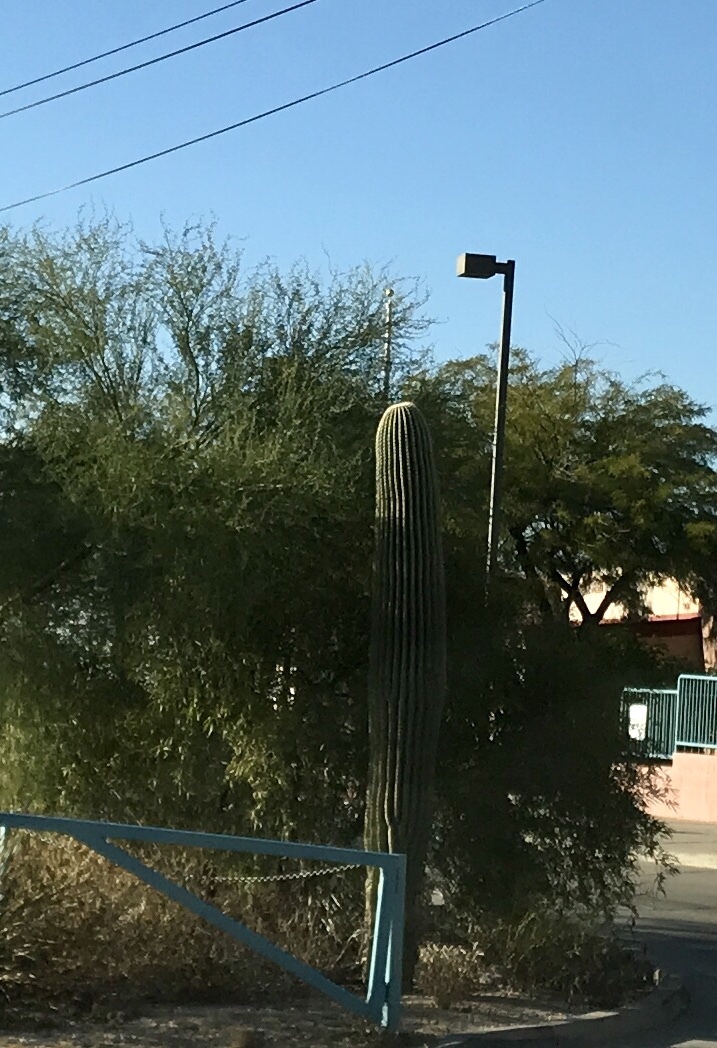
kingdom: Plantae
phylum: Tracheophyta
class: Magnoliopsida
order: Caryophyllales
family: Cactaceae
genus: Carnegiea
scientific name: Carnegiea gigantea
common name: Saguaro
